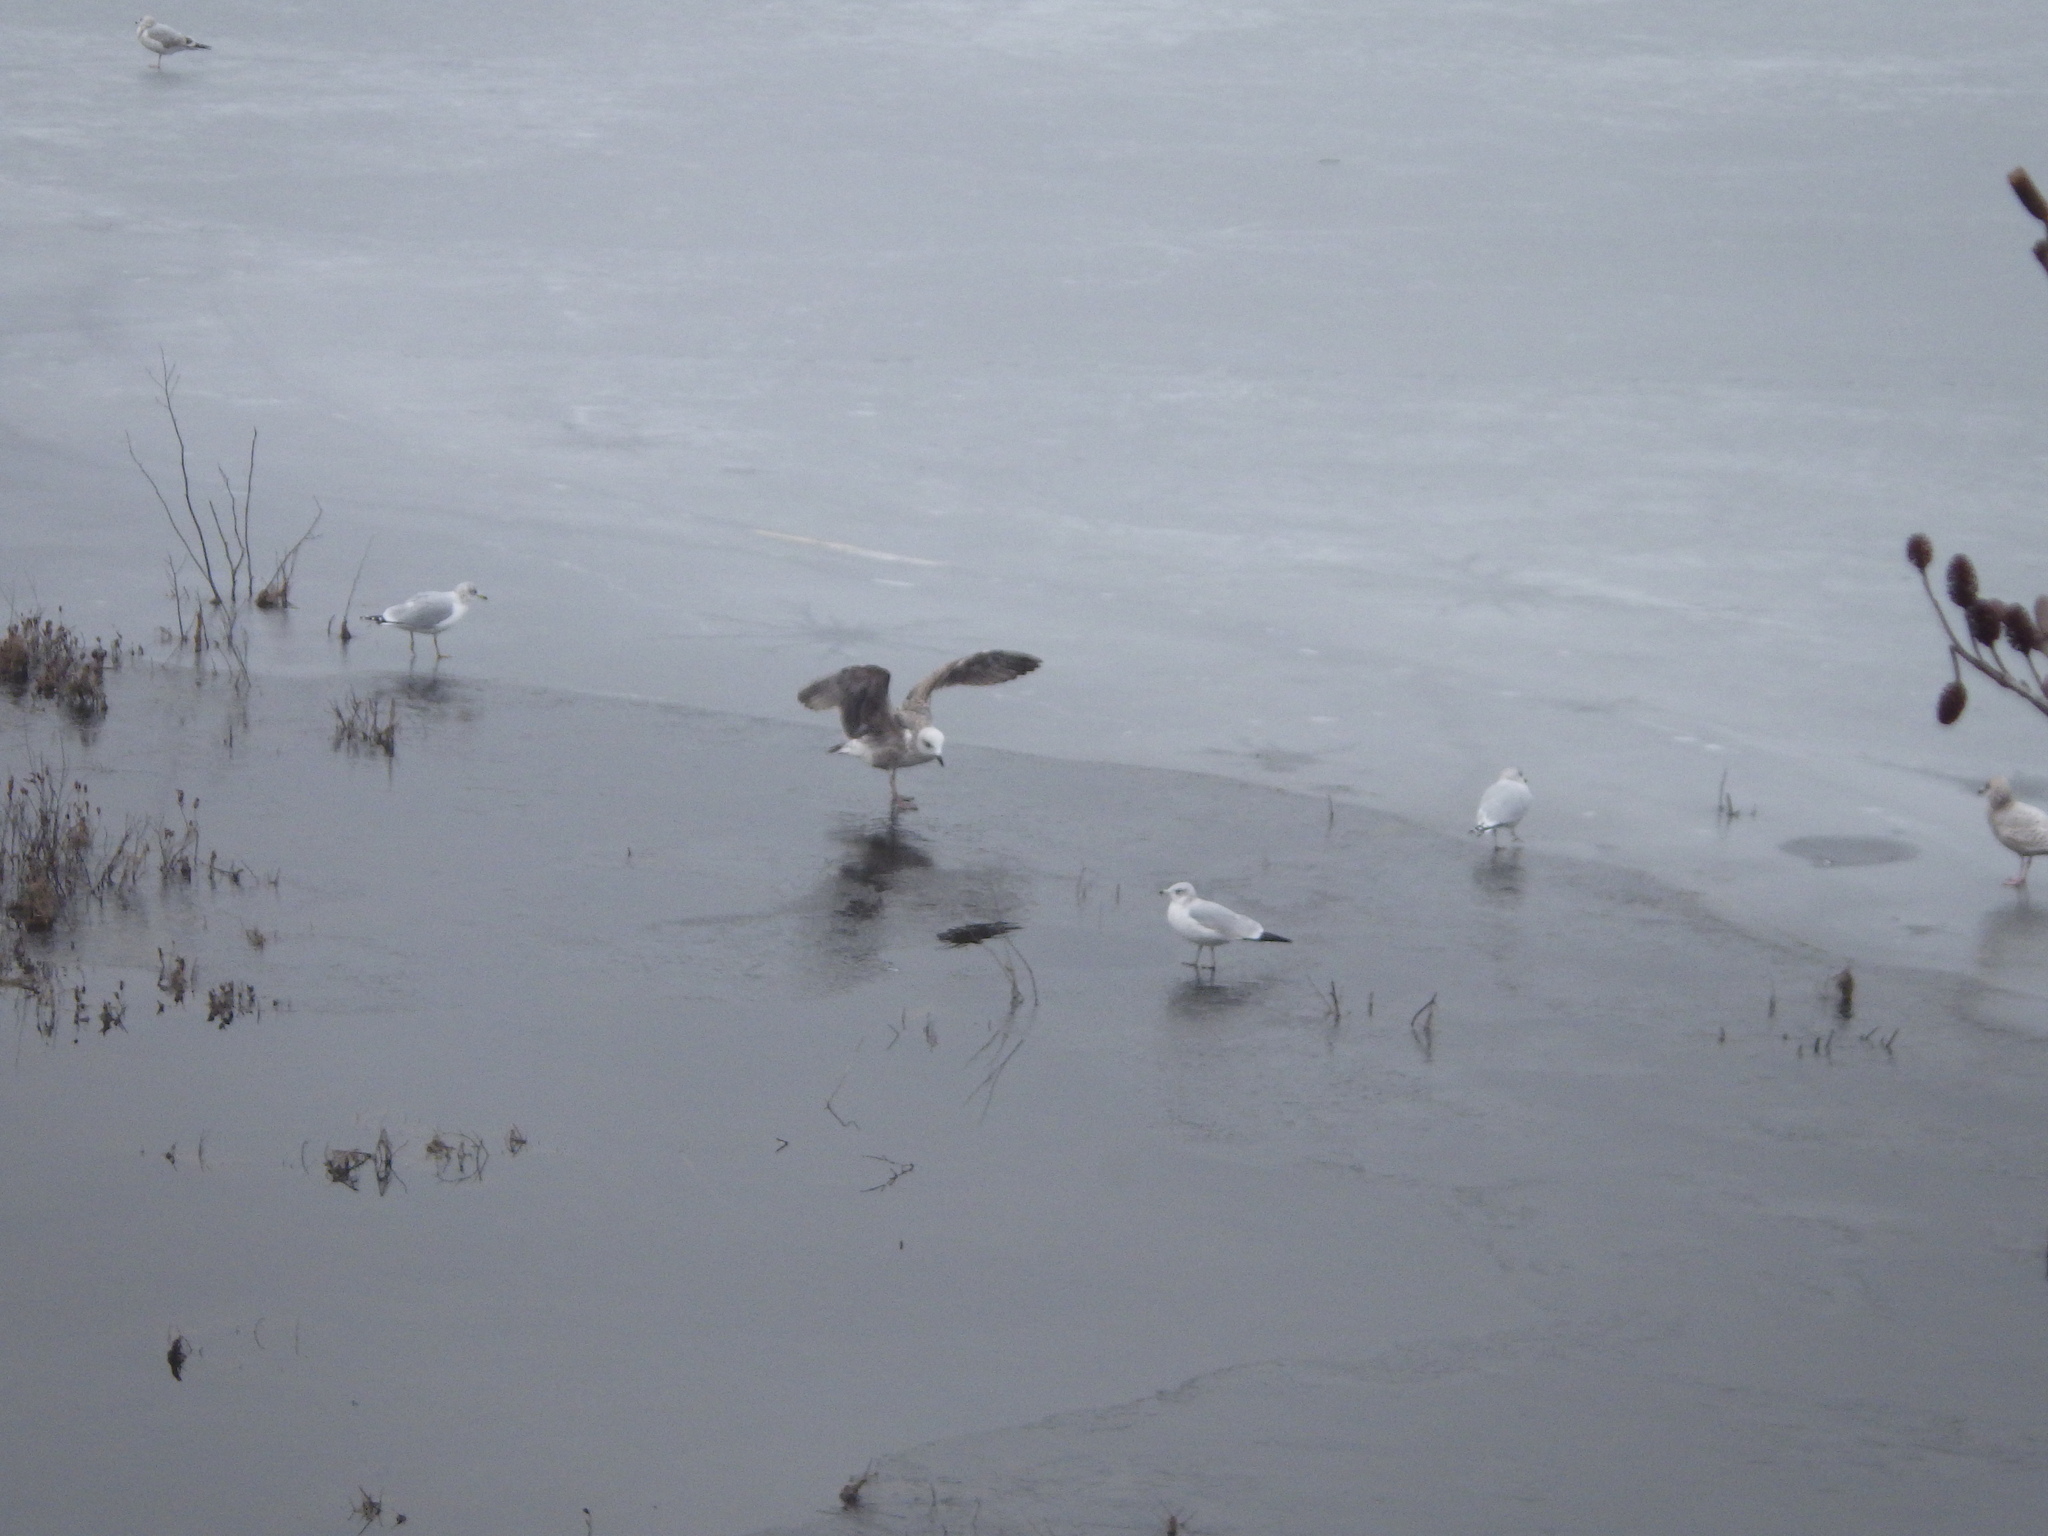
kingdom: Animalia
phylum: Chordata
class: Aves
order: Charadriiformes
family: Laridae
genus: Larus
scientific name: Larus delawarensis
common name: Ring-billed gull
